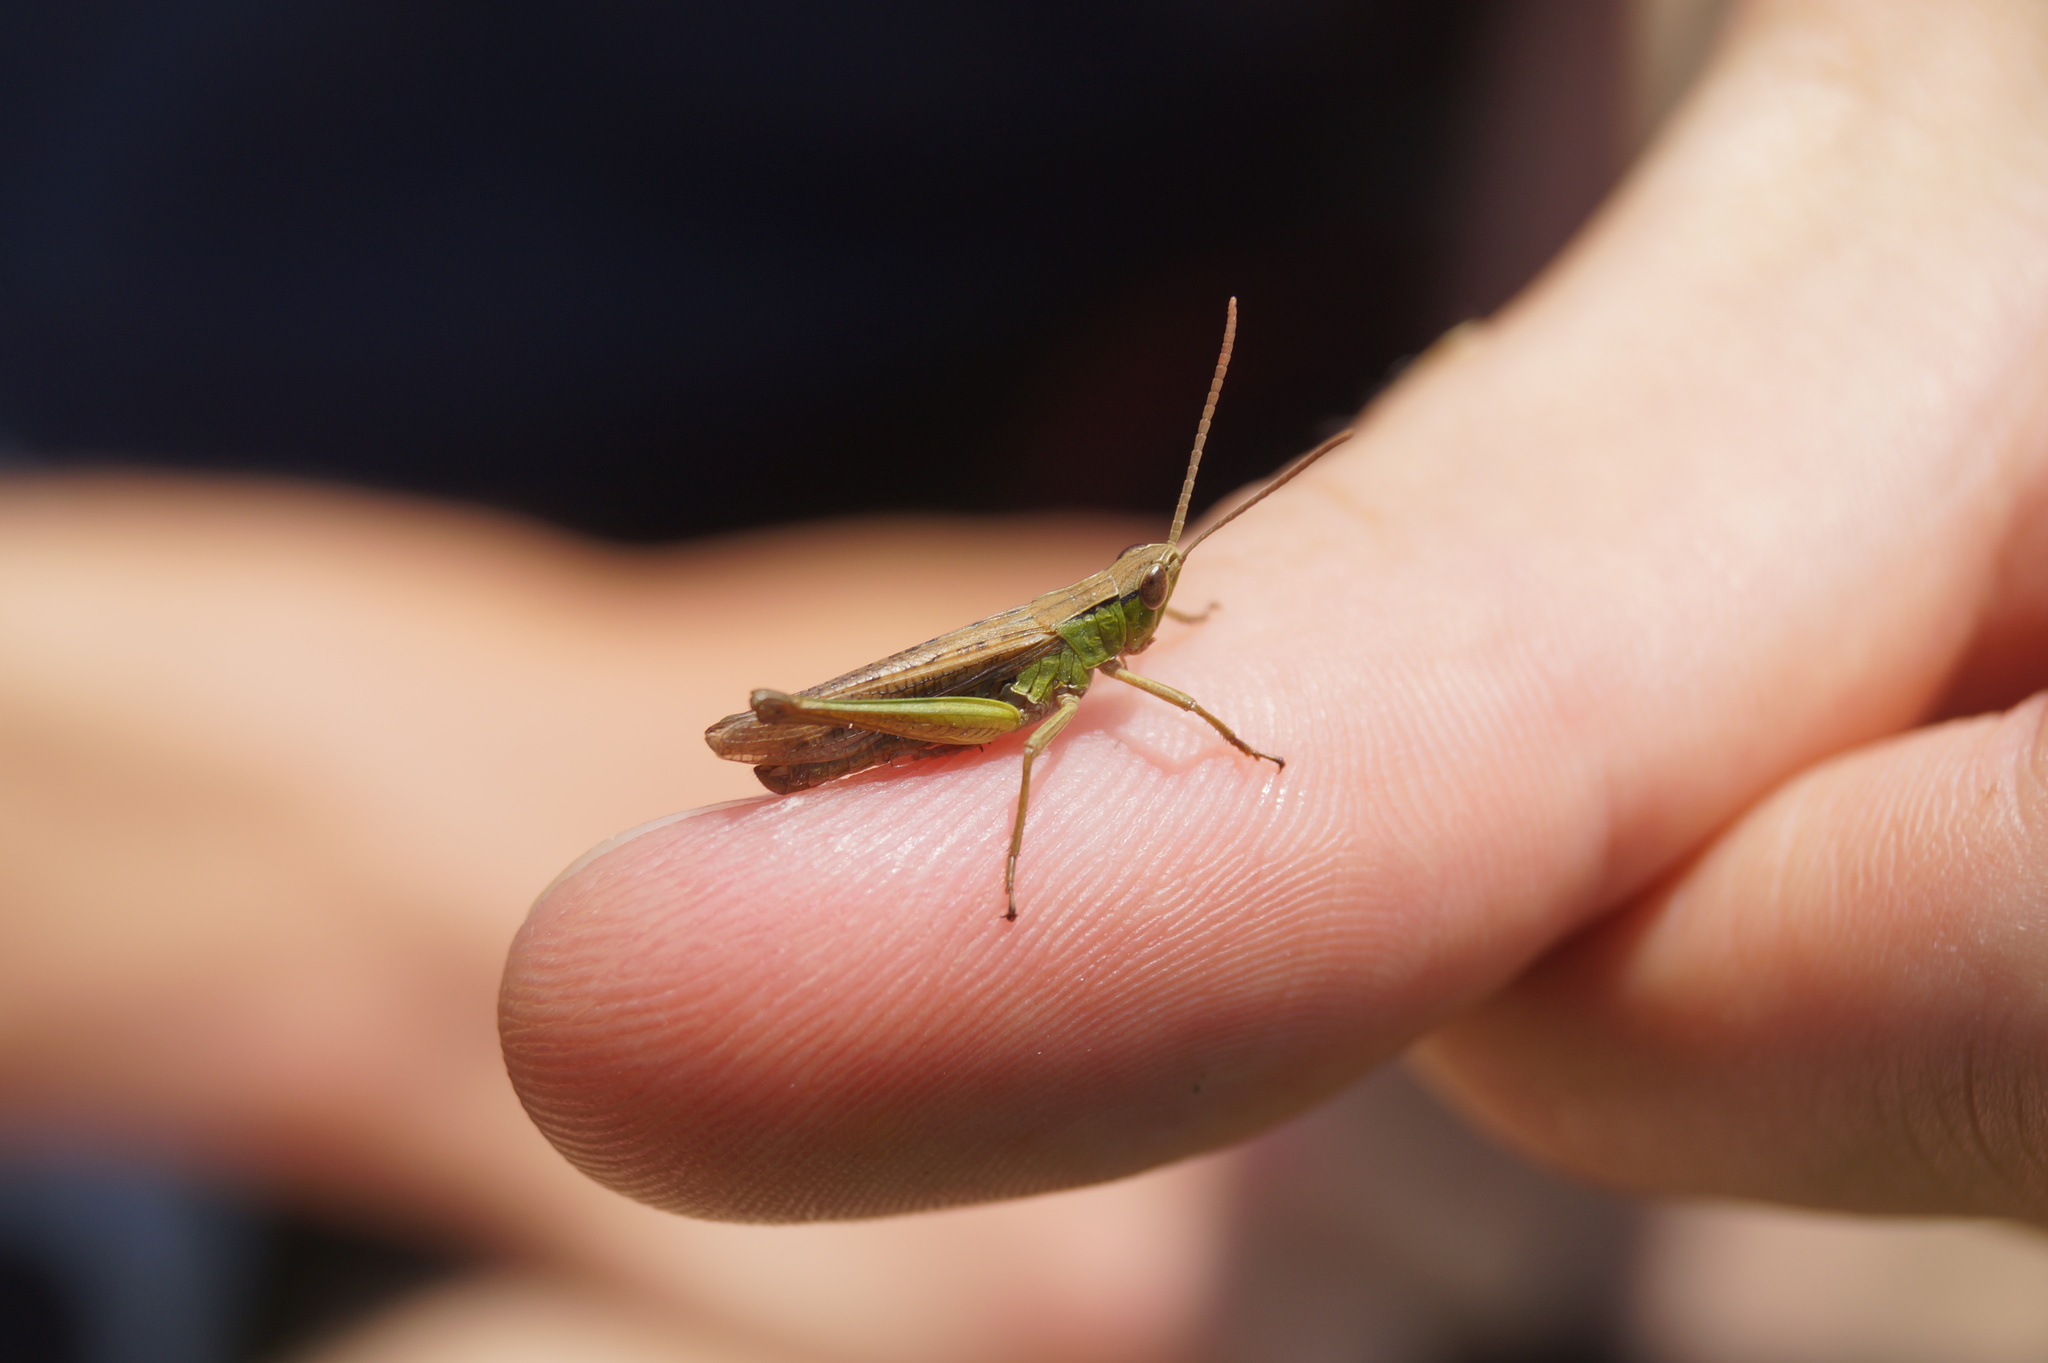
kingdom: Animalia
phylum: Arthropoda
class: Insecta
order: Orthoptera
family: Acrididae
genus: Chorthippus
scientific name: Chorthippus albomarginatus
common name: Lesser marsh grasshopper
